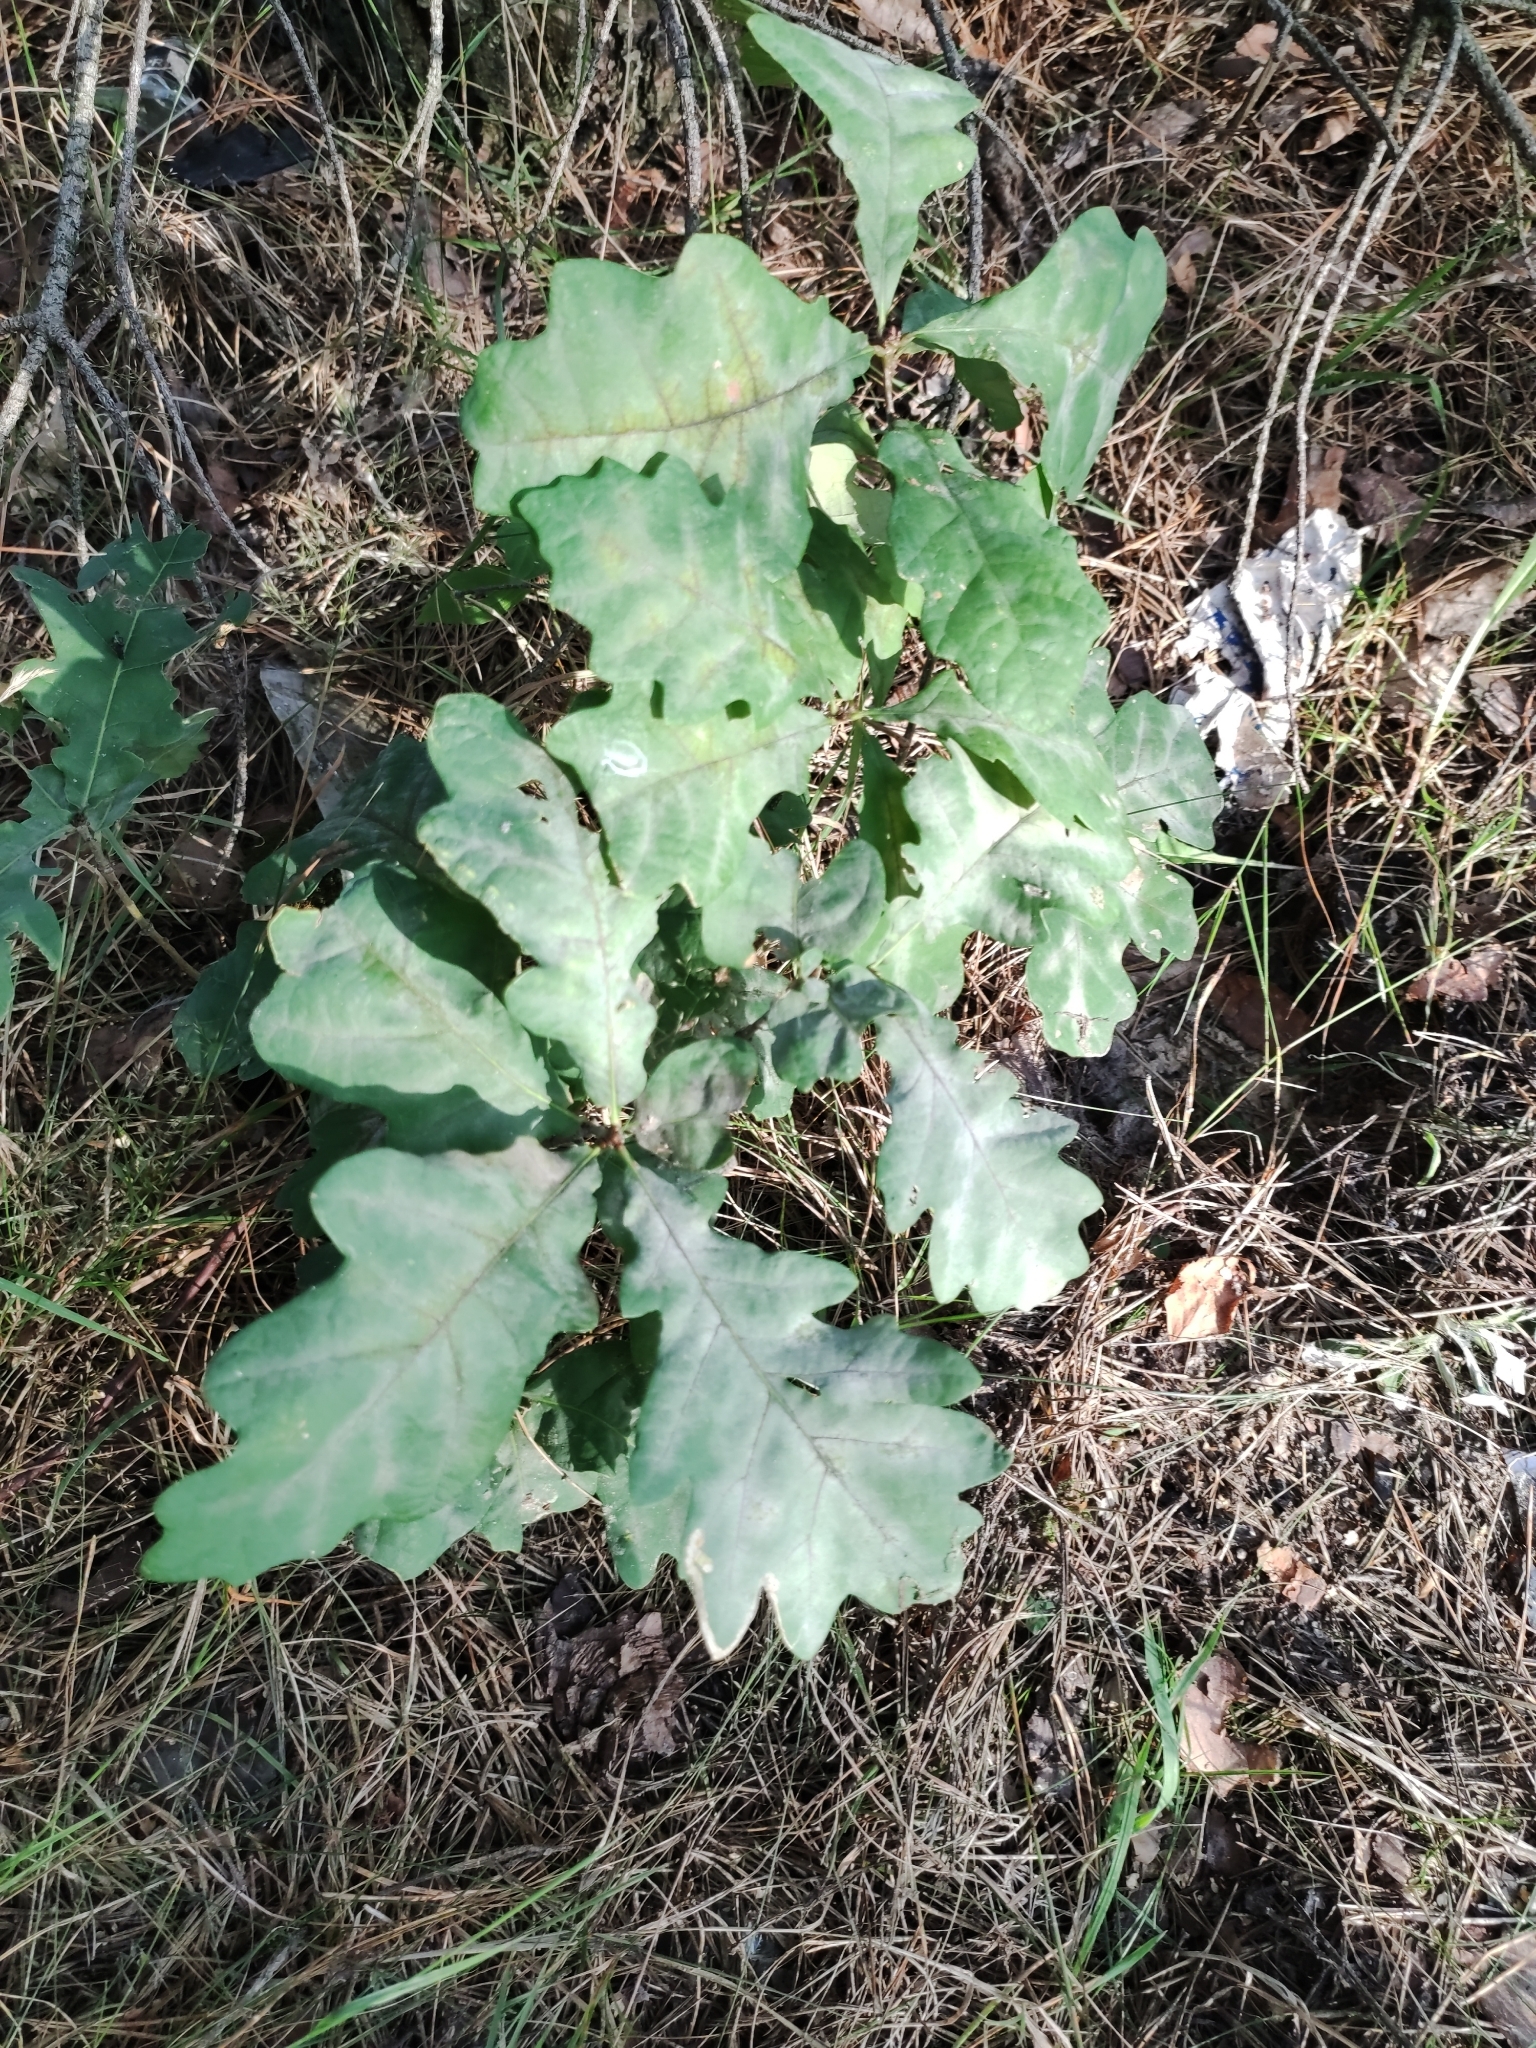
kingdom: Plantae
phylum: Tracheophyta
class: Magnoliopsida
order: Fagales
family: Fagaceae
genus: Quercus
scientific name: Quercus robur
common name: Pedunculate oak
